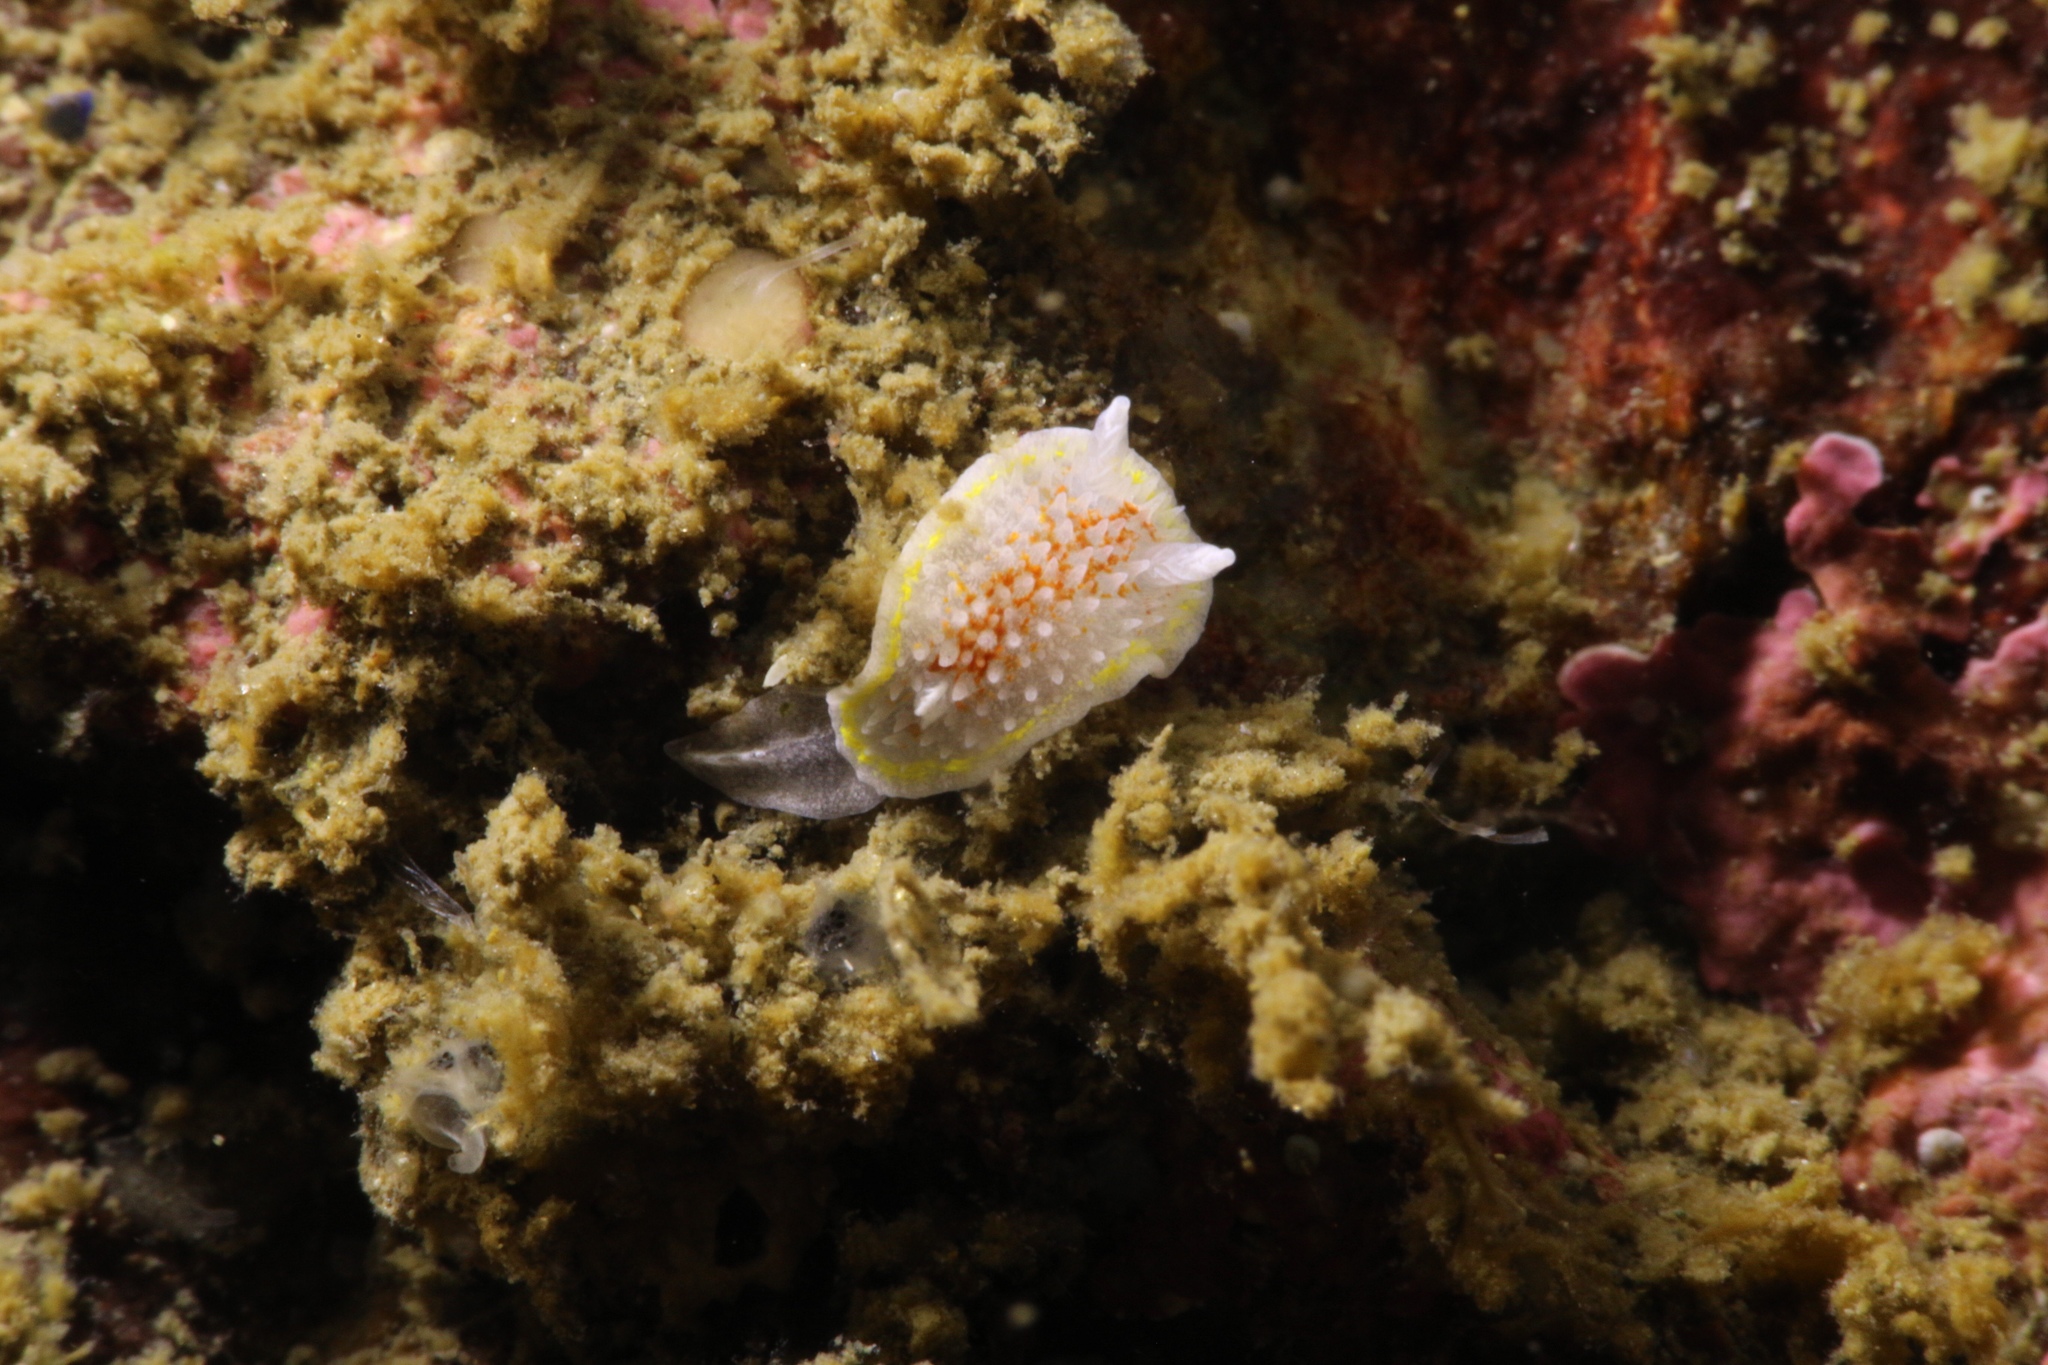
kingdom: Animalia
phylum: Mollusca
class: Gastropoda
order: Nudibranchia
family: Calycidorididae
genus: Diaphorodoris
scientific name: Diaphorodoris luteocincta
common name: Fried egg nudibranch
